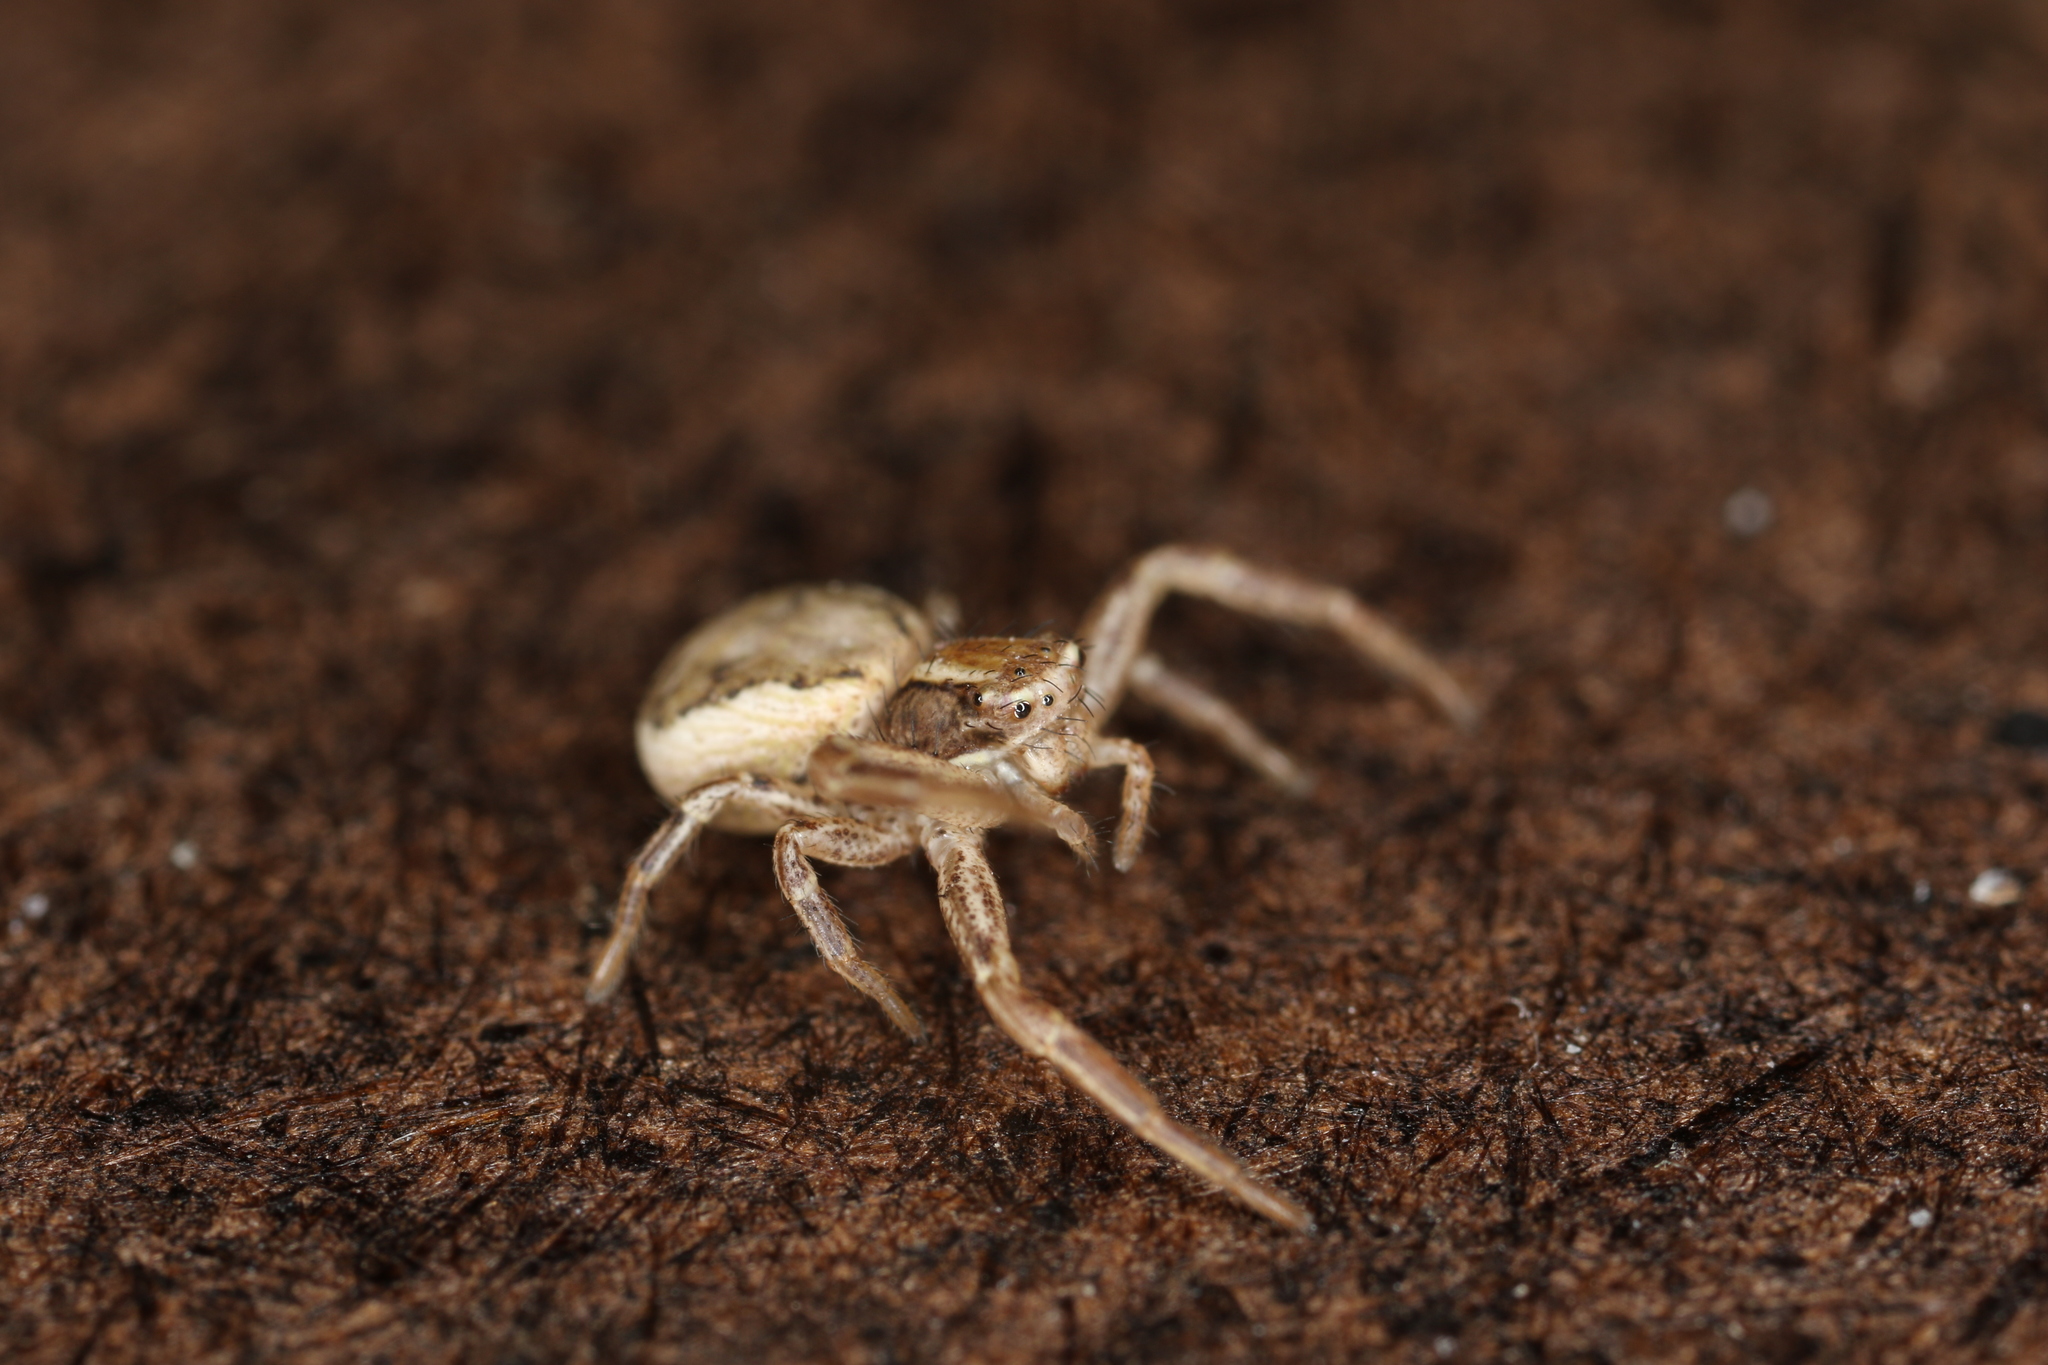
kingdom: Animalia
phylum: Arthropoda
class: Arachnida
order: Araneae
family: Thomisidae
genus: Xysticus
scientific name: Xysticus cristatus
